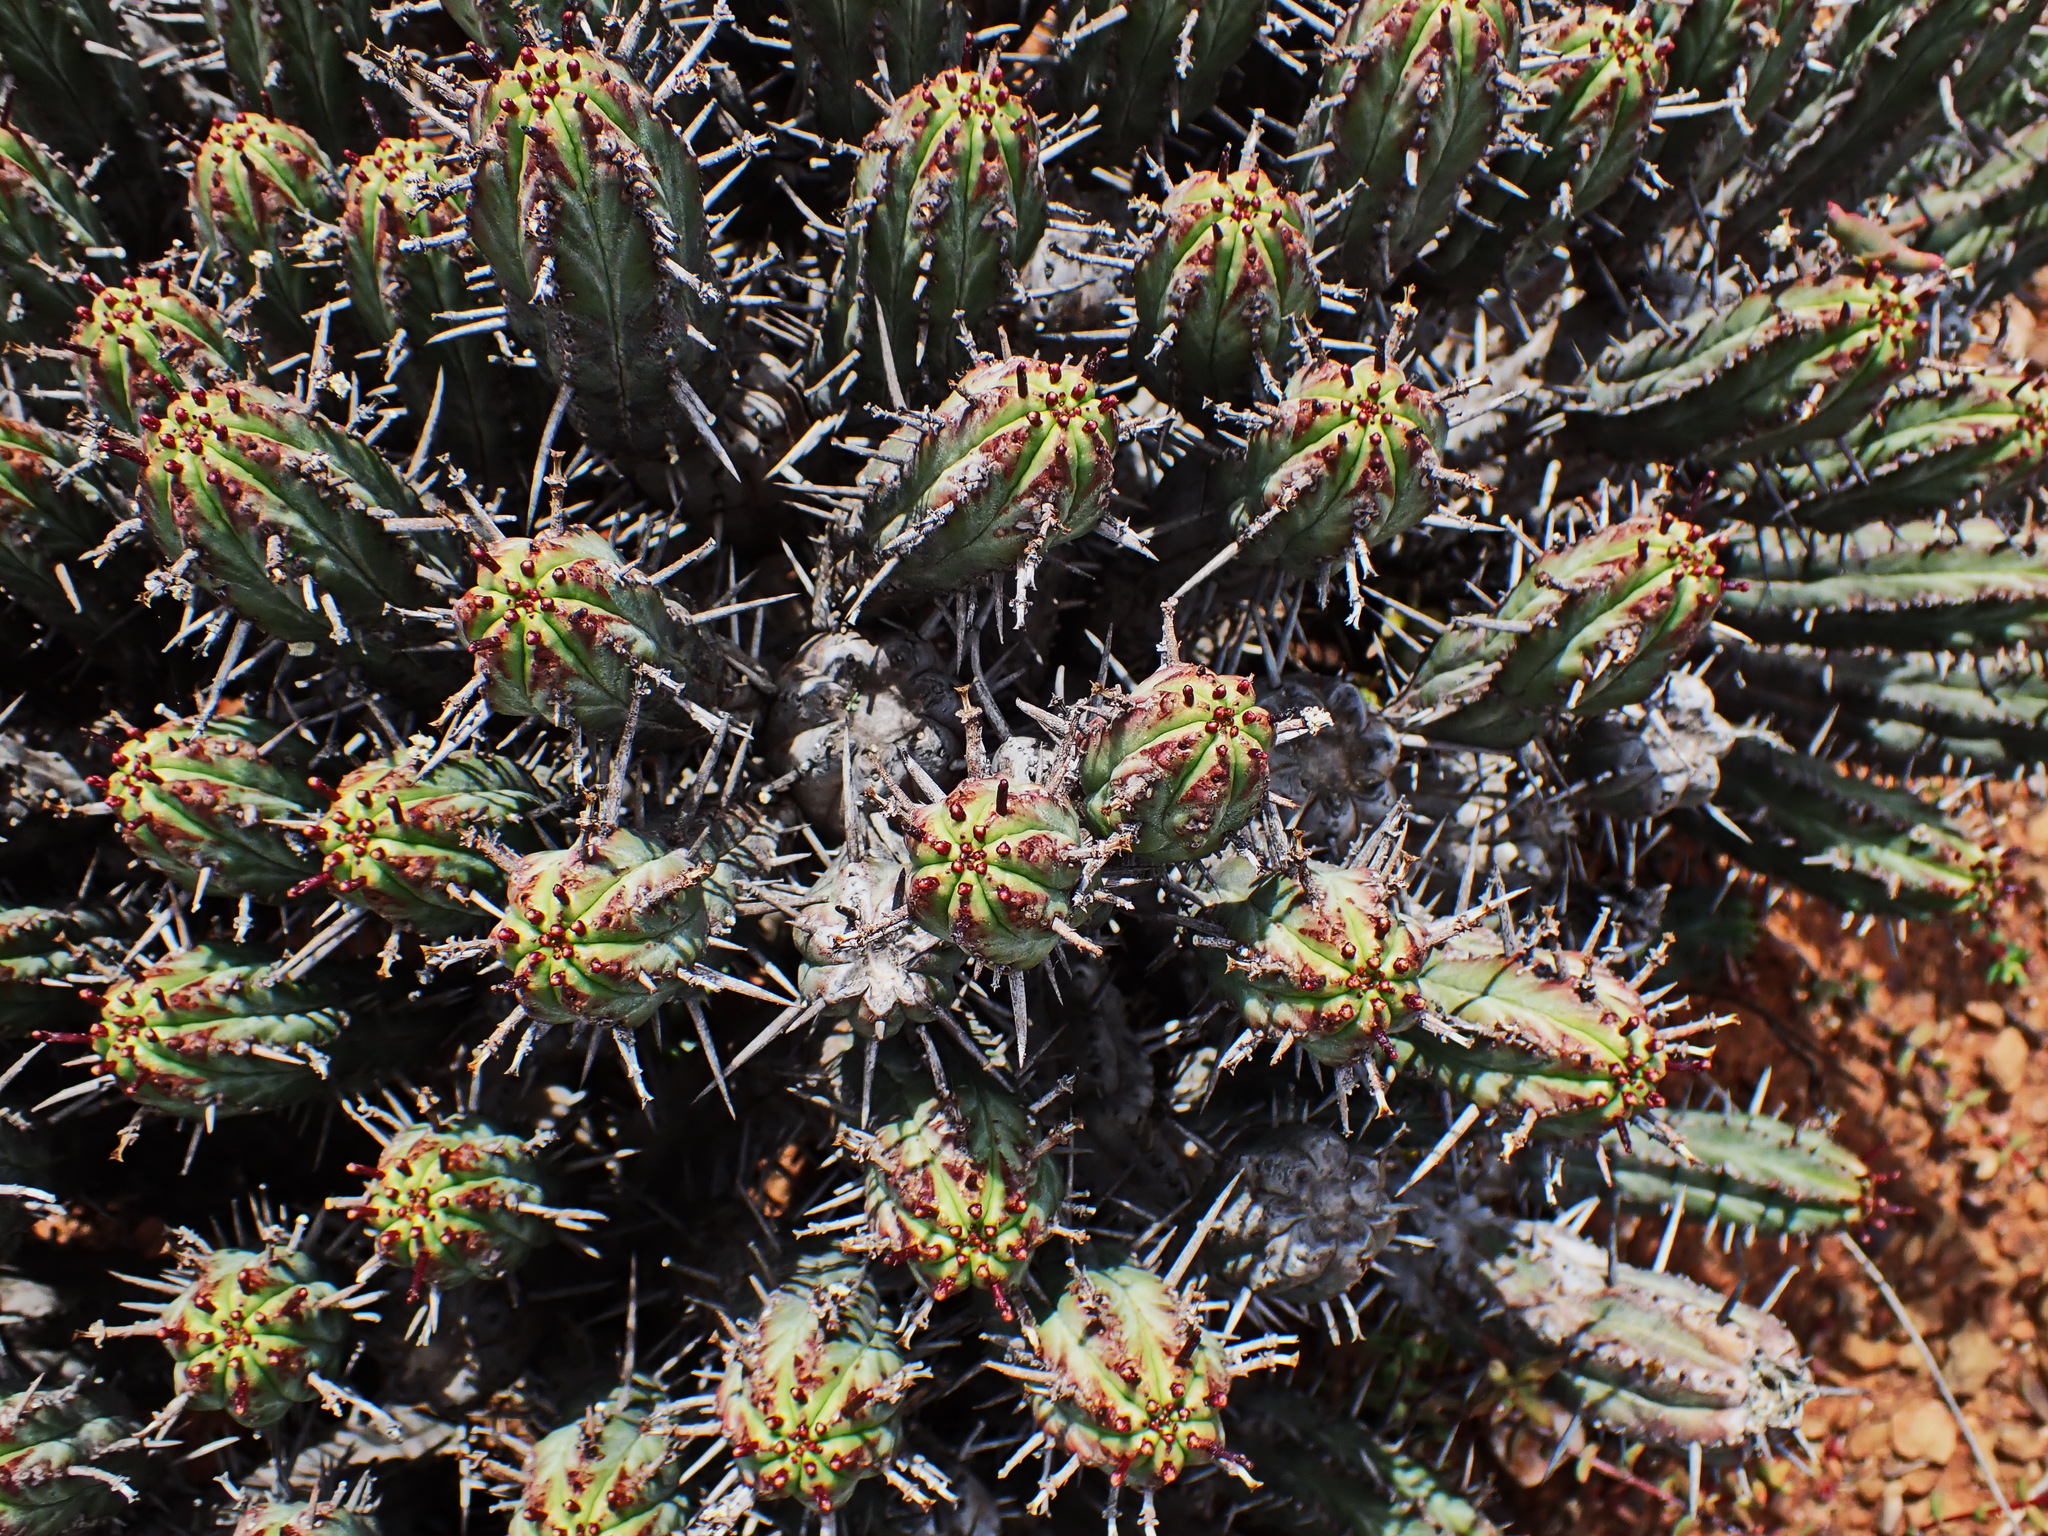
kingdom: Plantae
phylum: Tracheophyta
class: Magnoliopsida
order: Malpighiales
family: Euphorbiaceae
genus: Euphorbia
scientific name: Euphorbia heptagona
